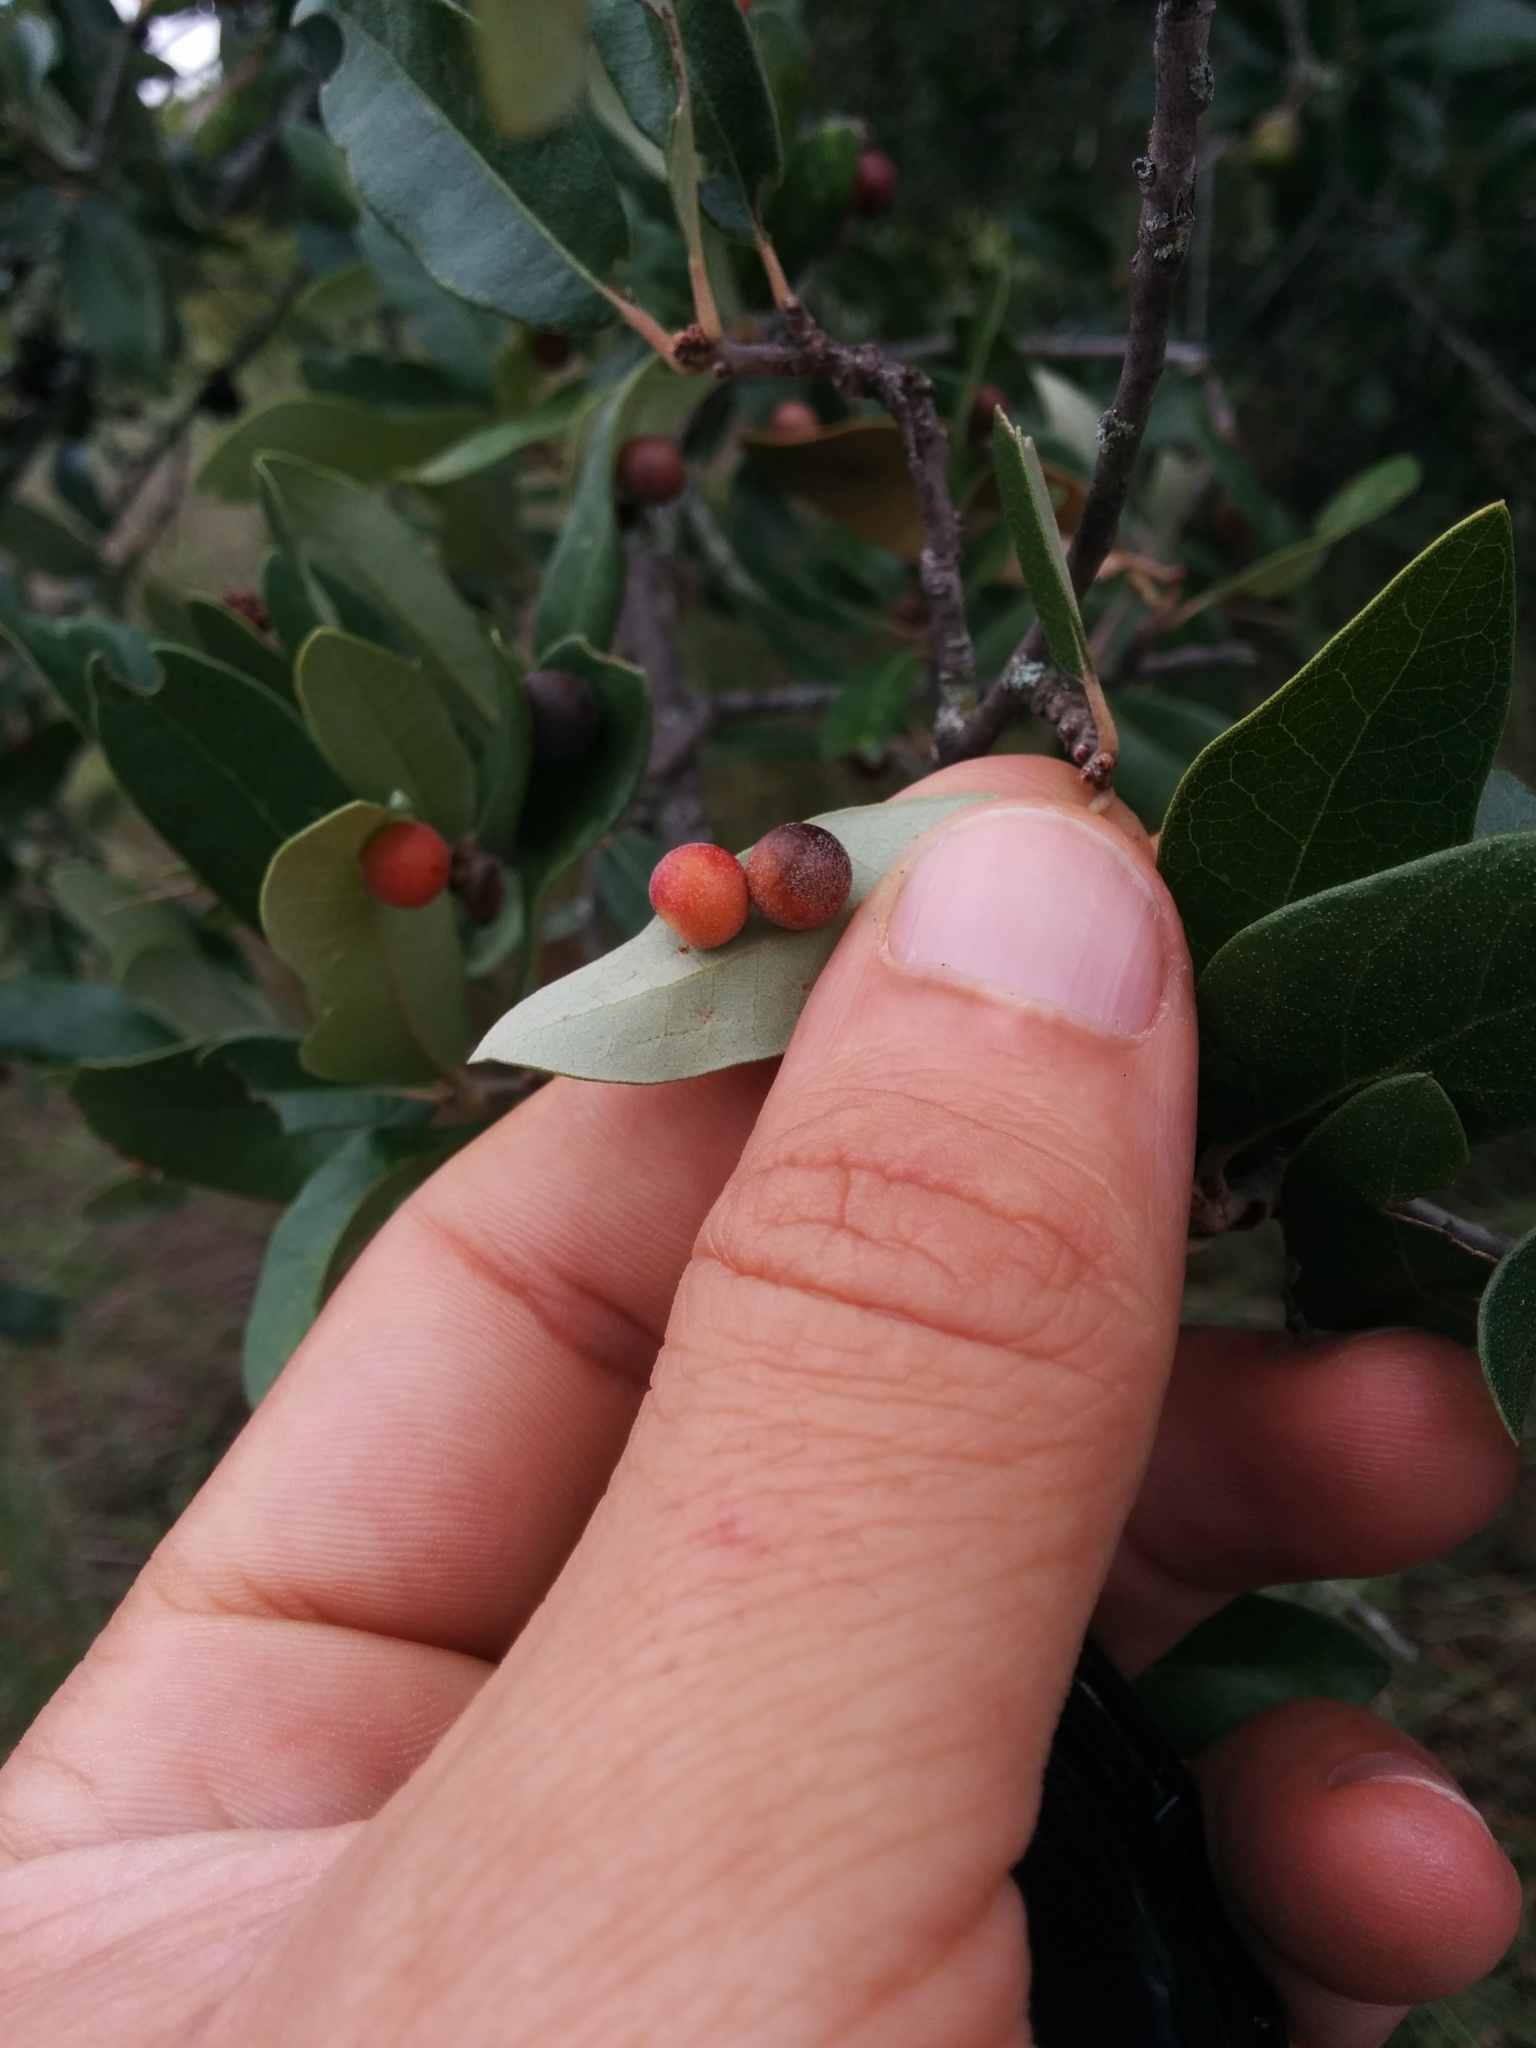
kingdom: Animalia
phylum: Arthropoda
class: Insecta
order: Hymenoptera
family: Cynipidae
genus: Belonocnema
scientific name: Belonocnema kinseyi
